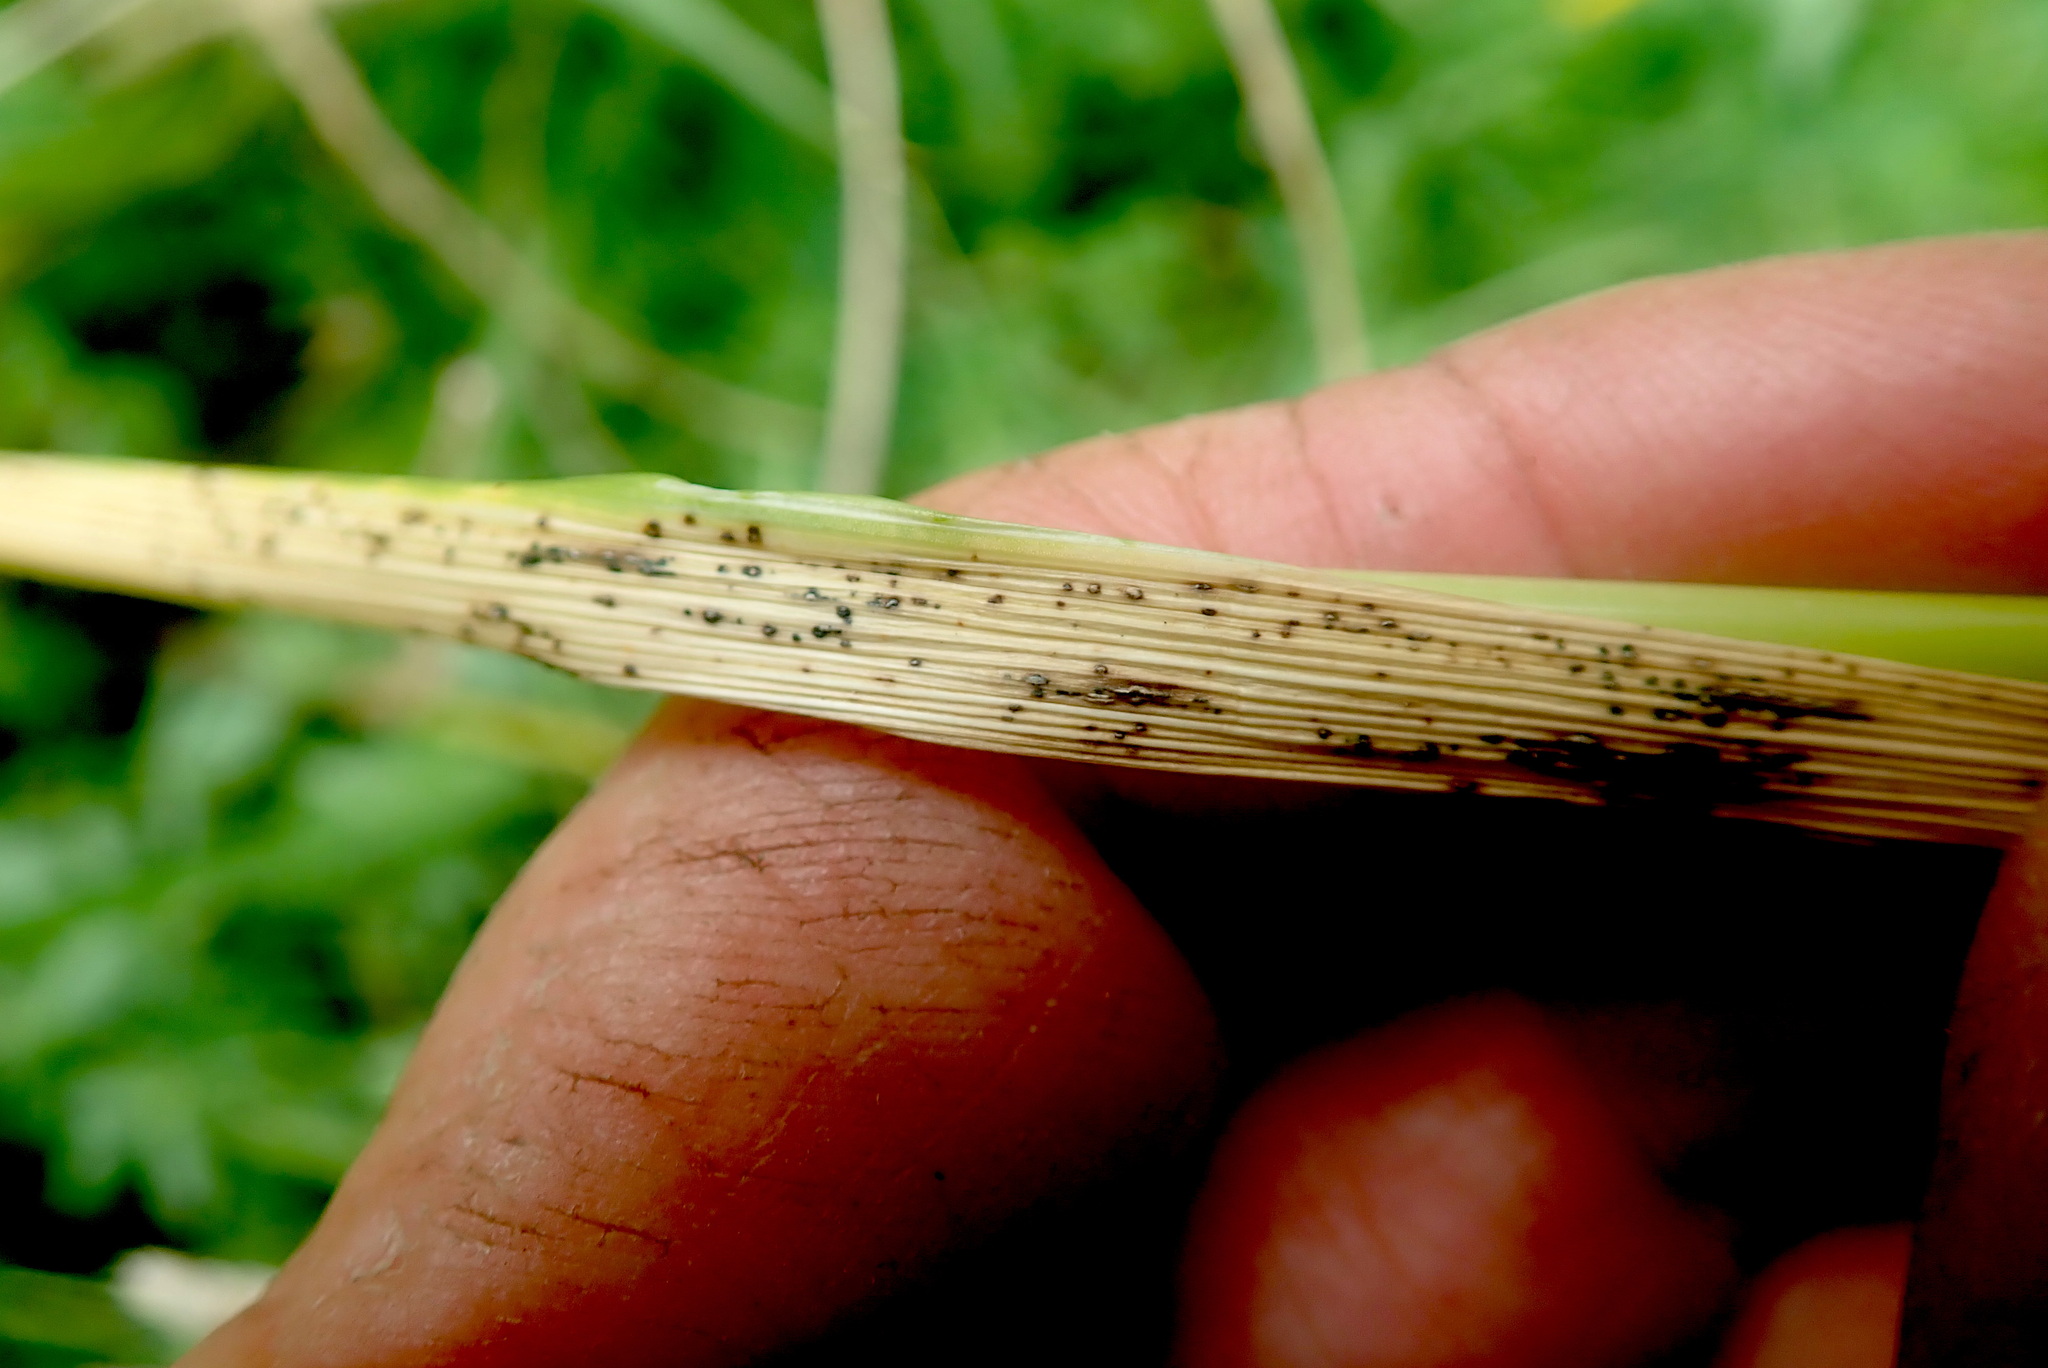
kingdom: Plantae
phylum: Tracheophyta
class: Liliopsida
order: Poales
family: Poaceae
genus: Lolium
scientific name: Lolium arundinaceum
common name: Reed fescue
